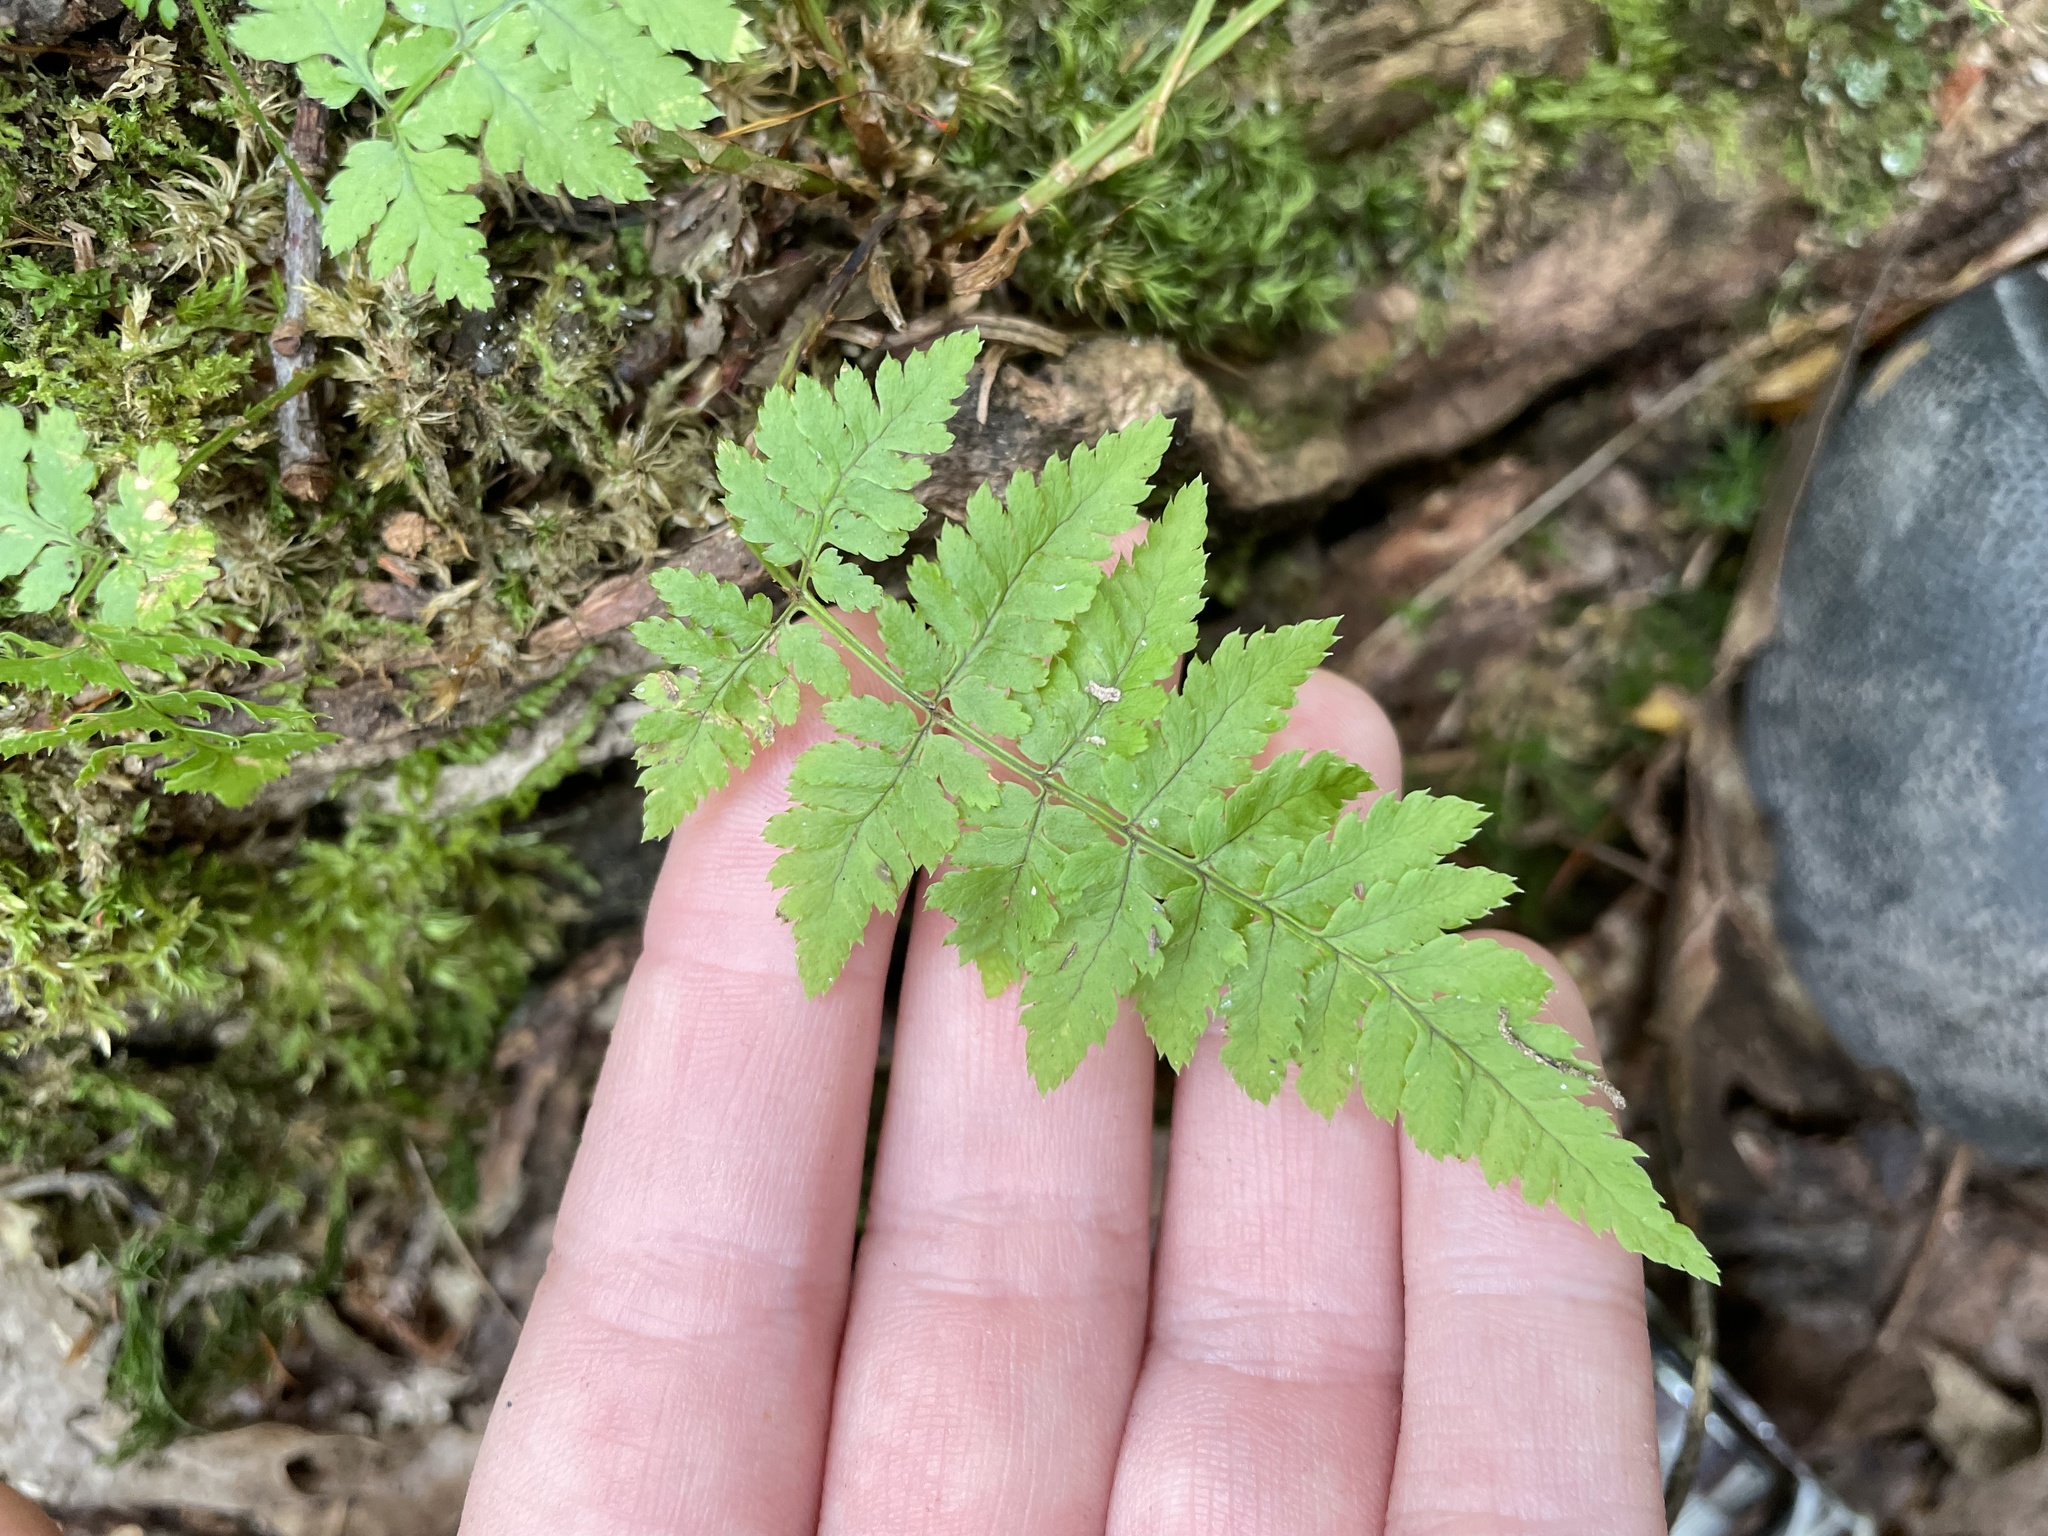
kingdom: Plantae
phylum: Tracheophyta
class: Polypodiopsida
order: Polypodiales
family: Dryopteridaceae
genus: Dryopteris
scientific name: Dryopteris carthusiana
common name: Narrow buckler-fern
